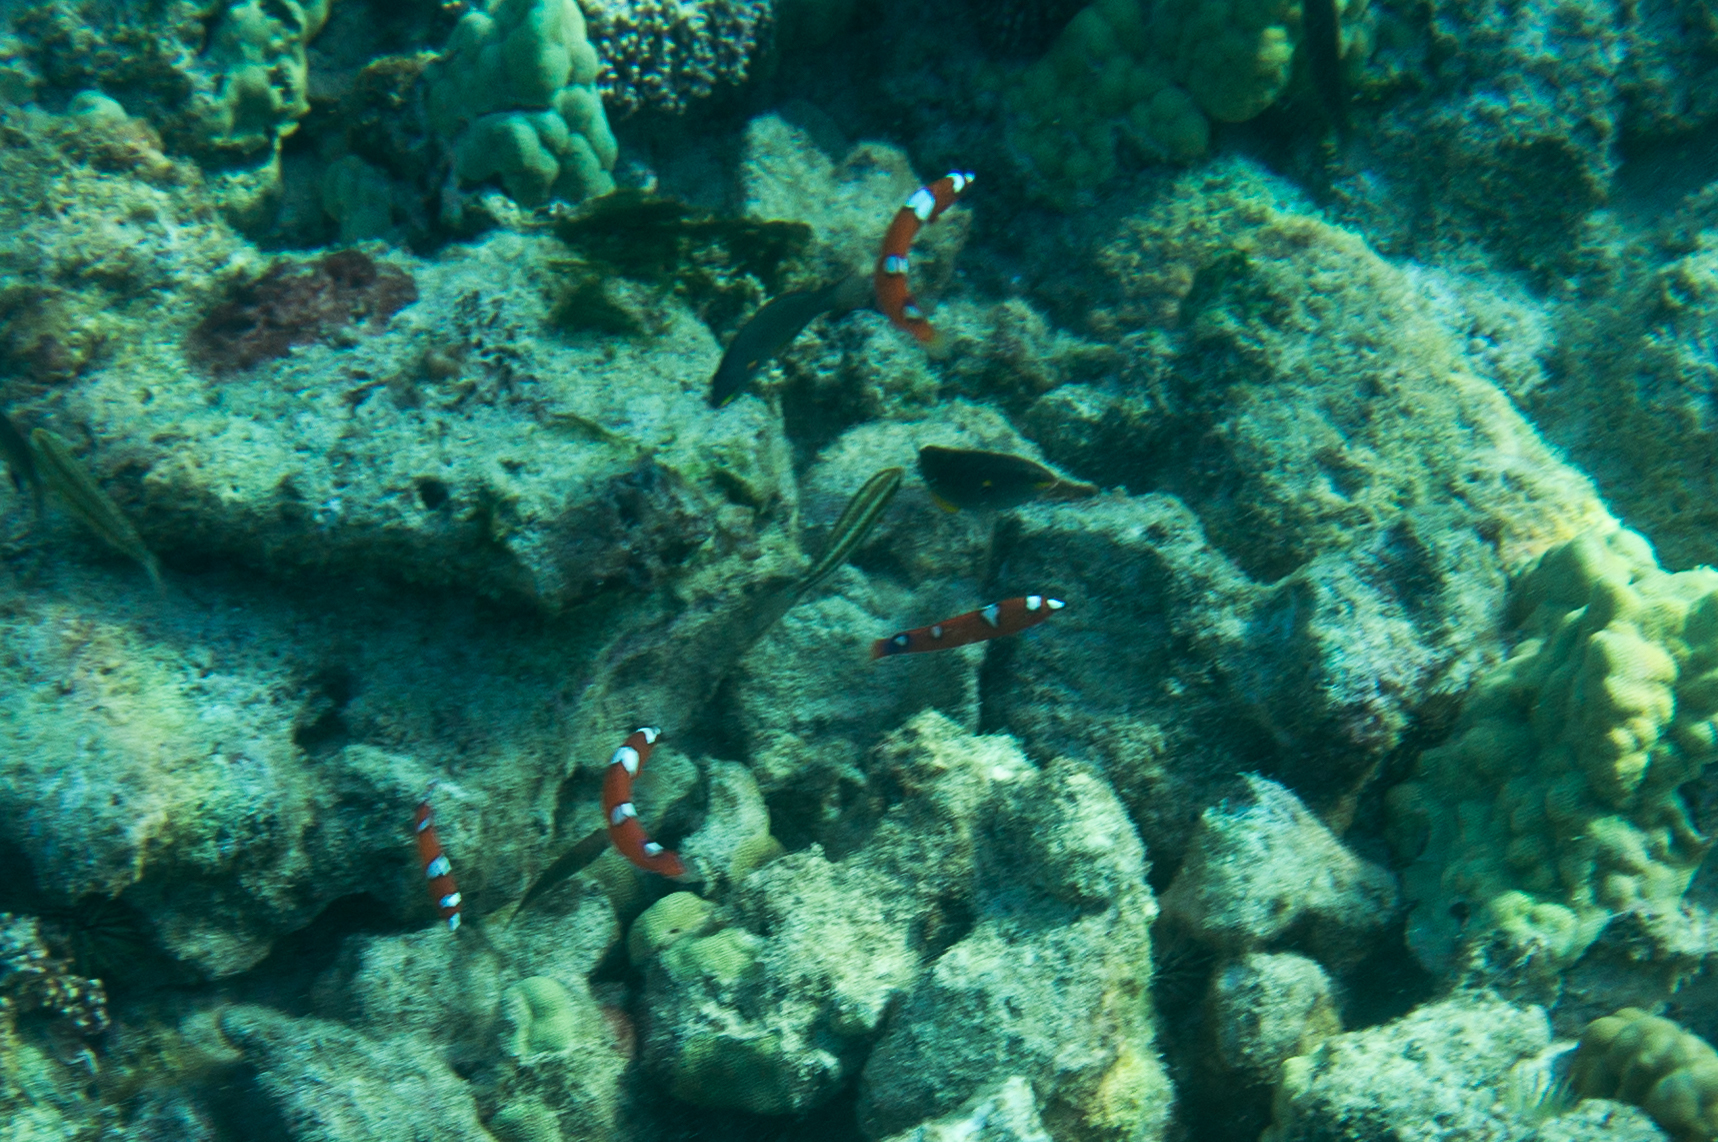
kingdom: Animalia
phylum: Chordata
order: Perciformes
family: Labridae
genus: Coris
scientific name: Coris gaimard
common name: Yellowtail coris
